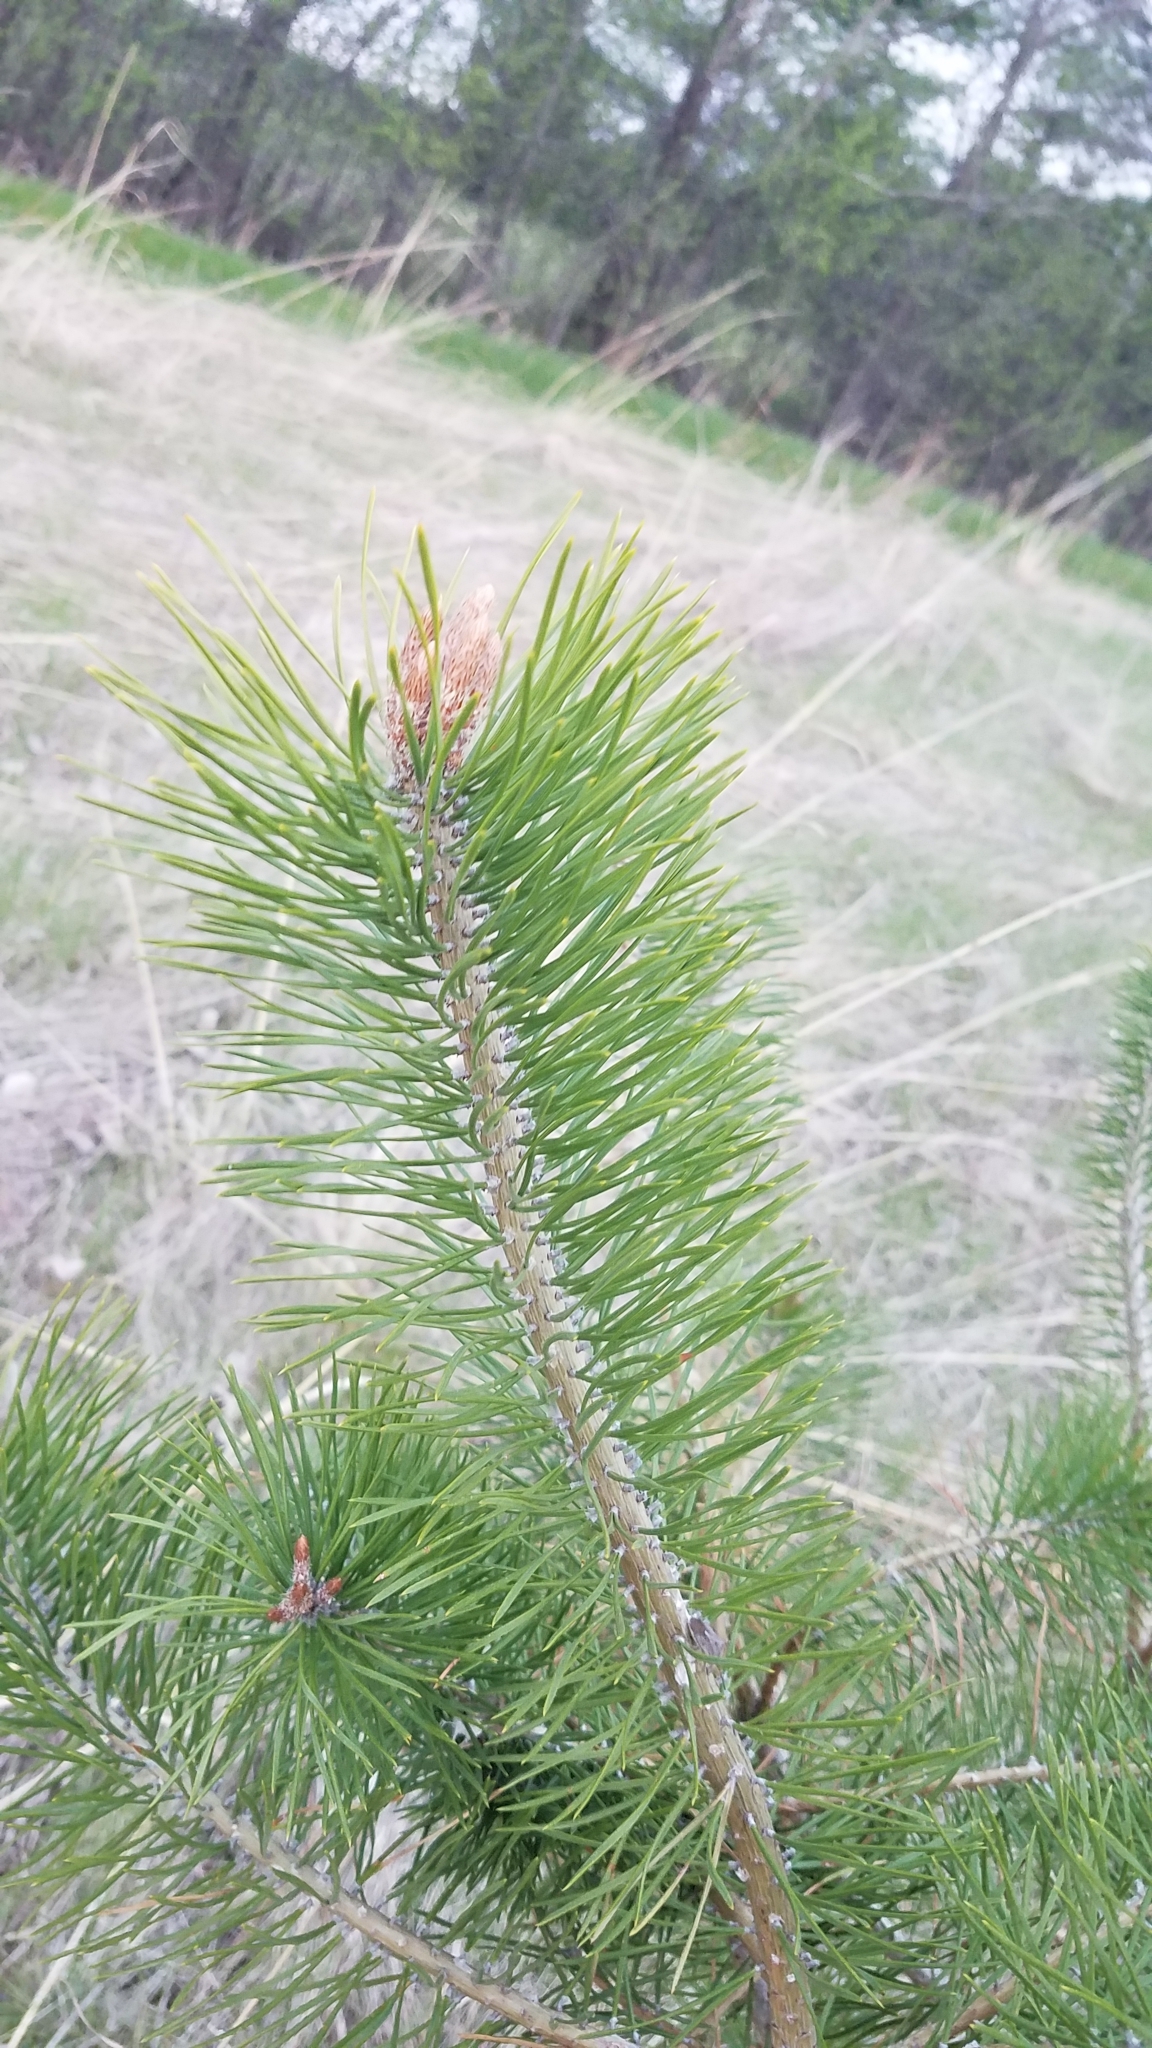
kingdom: Plantae
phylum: Tracheophyta
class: Pinopsida
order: Pinales
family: Pinaceae
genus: Pinus
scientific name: Pinus resinosa
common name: Norway pine
